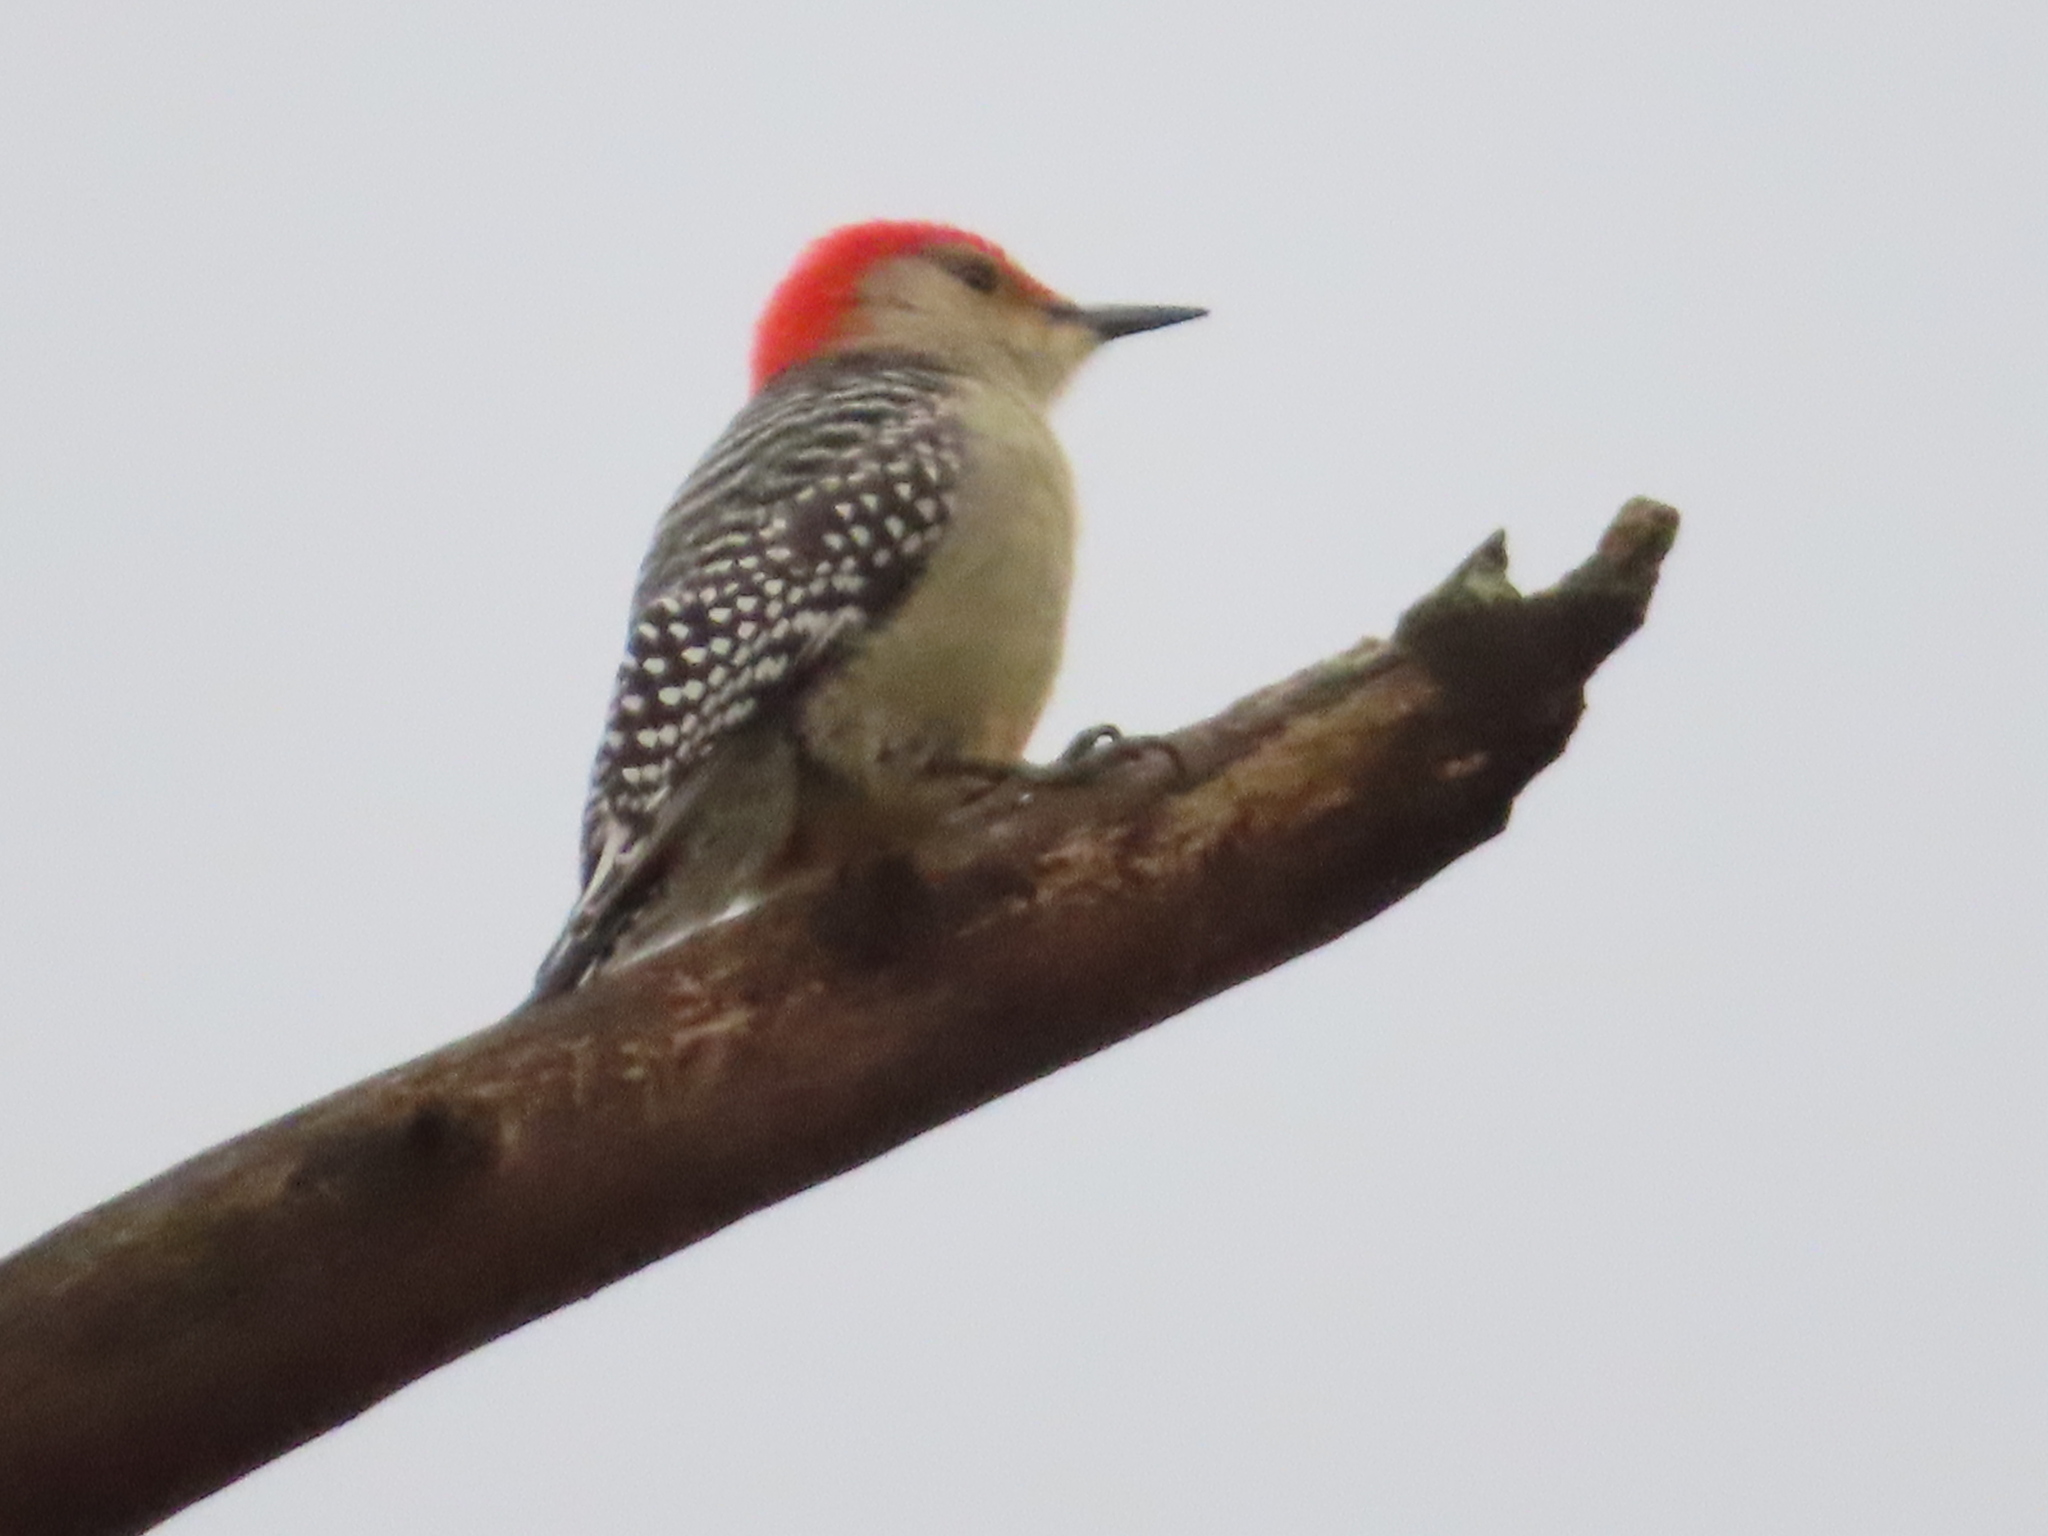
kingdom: Animalia
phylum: Chordata
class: Aves
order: Piciformes
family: Picidae
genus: Melanerpes
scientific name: Melanerpes carolinus
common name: Red-bellied woodpecker
